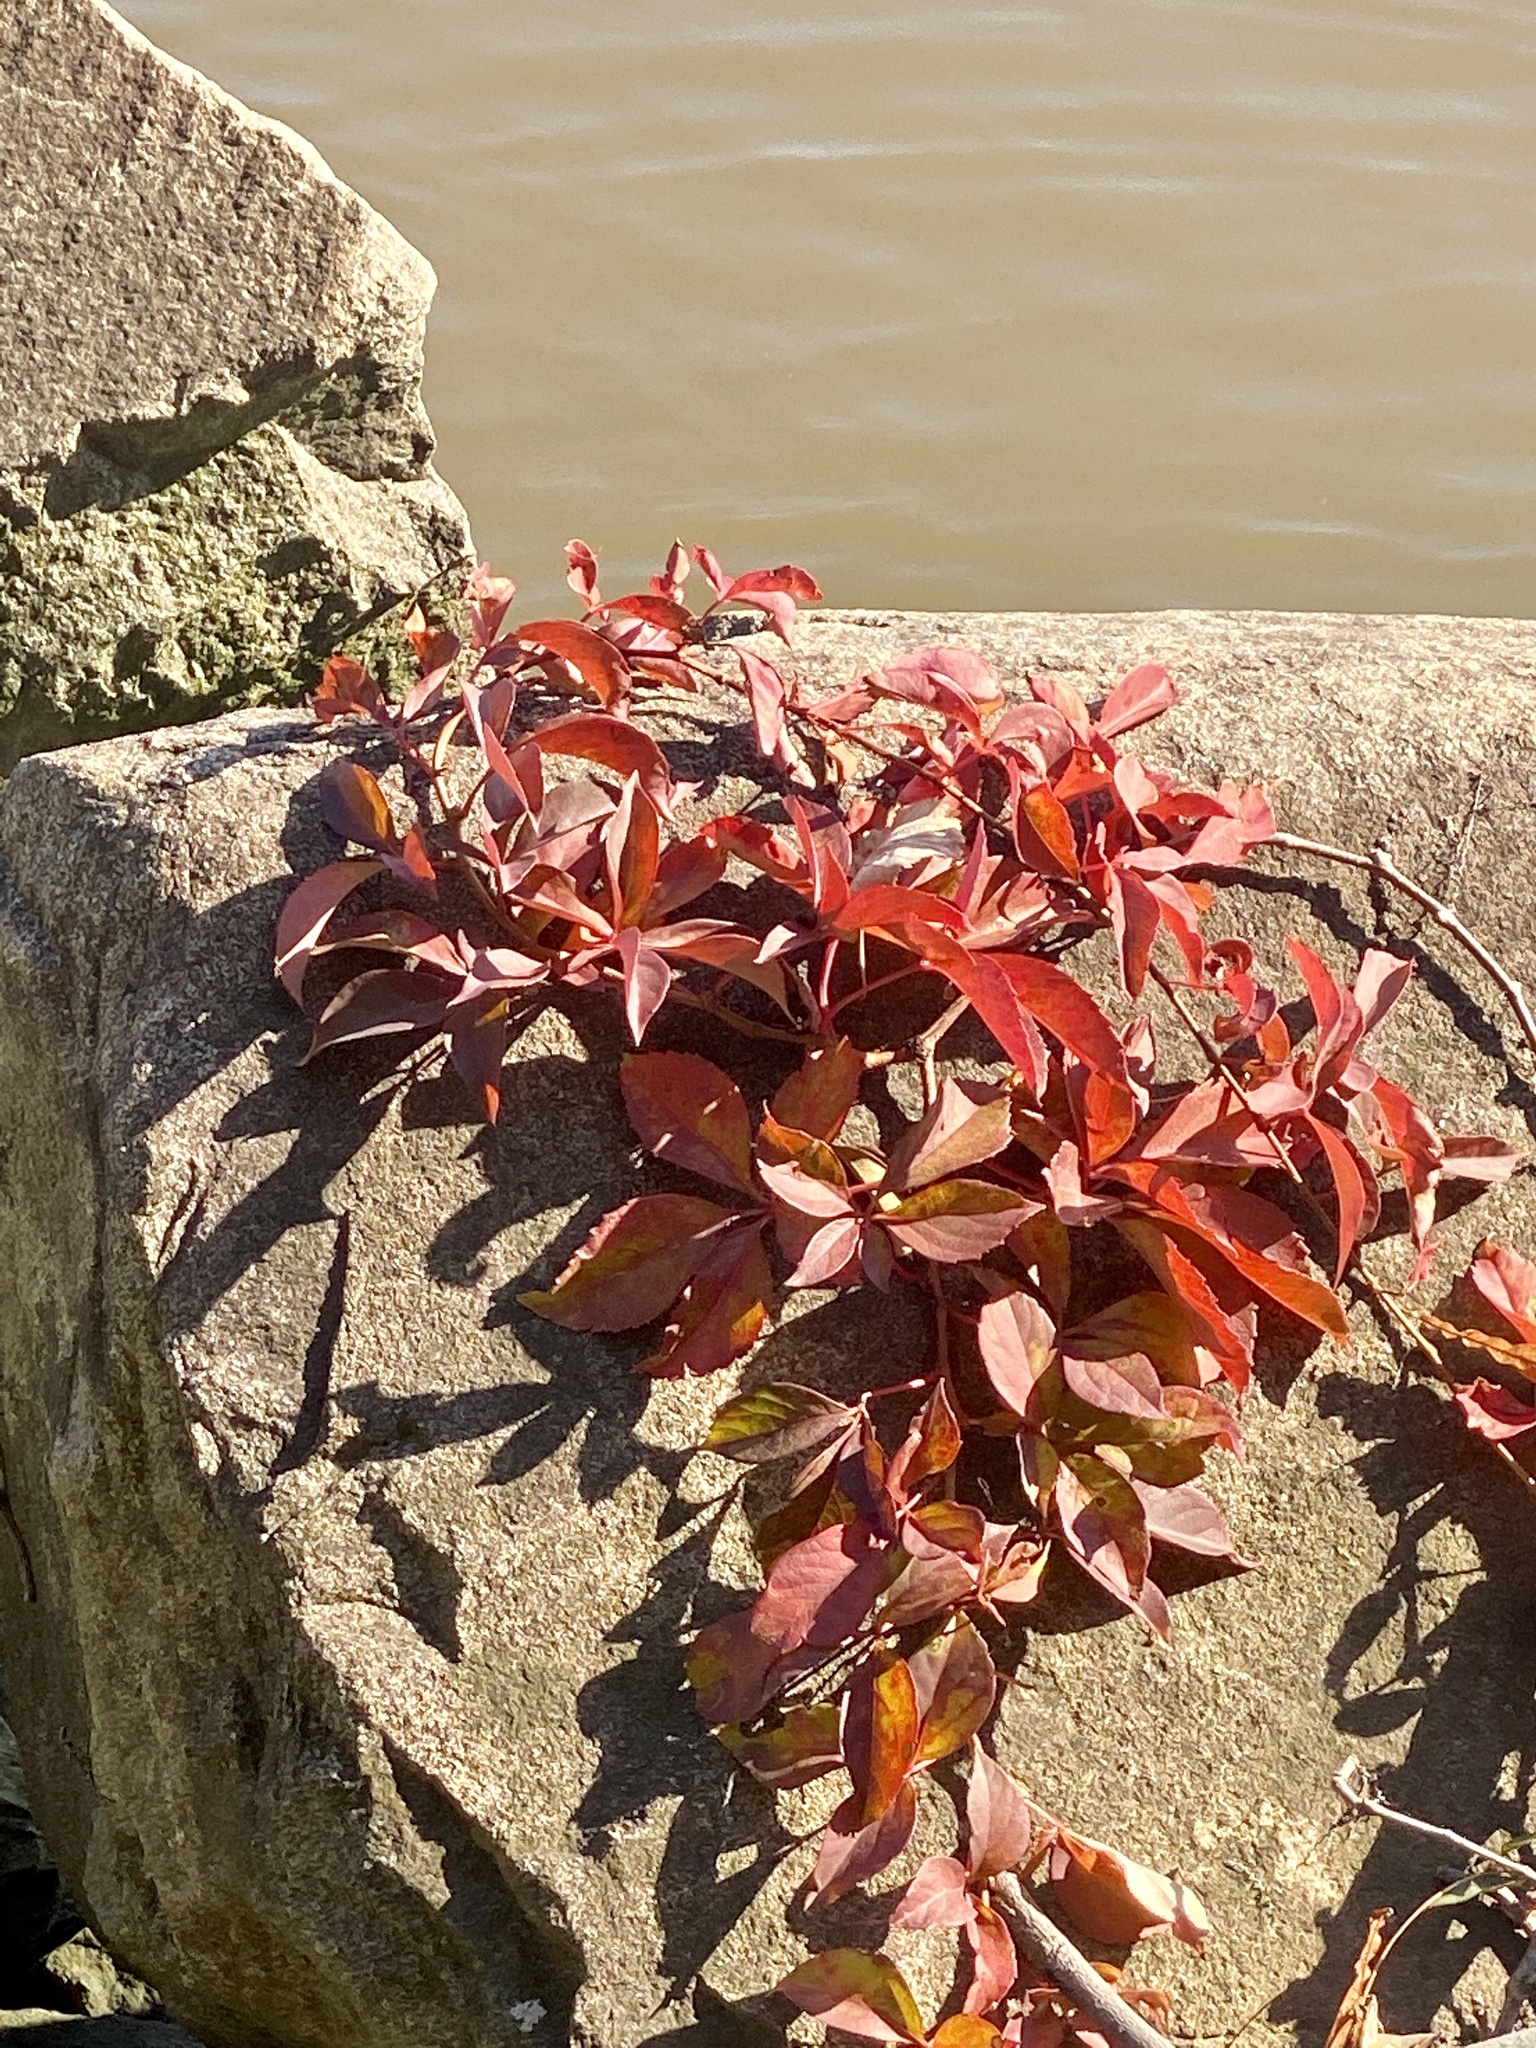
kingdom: Plantae
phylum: Tracheophyta
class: Magnoliopsida
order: Vitales
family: Vitaceae
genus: Parthenocissus
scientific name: Parthenocissus quinquefolia
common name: Virginia-creeper
